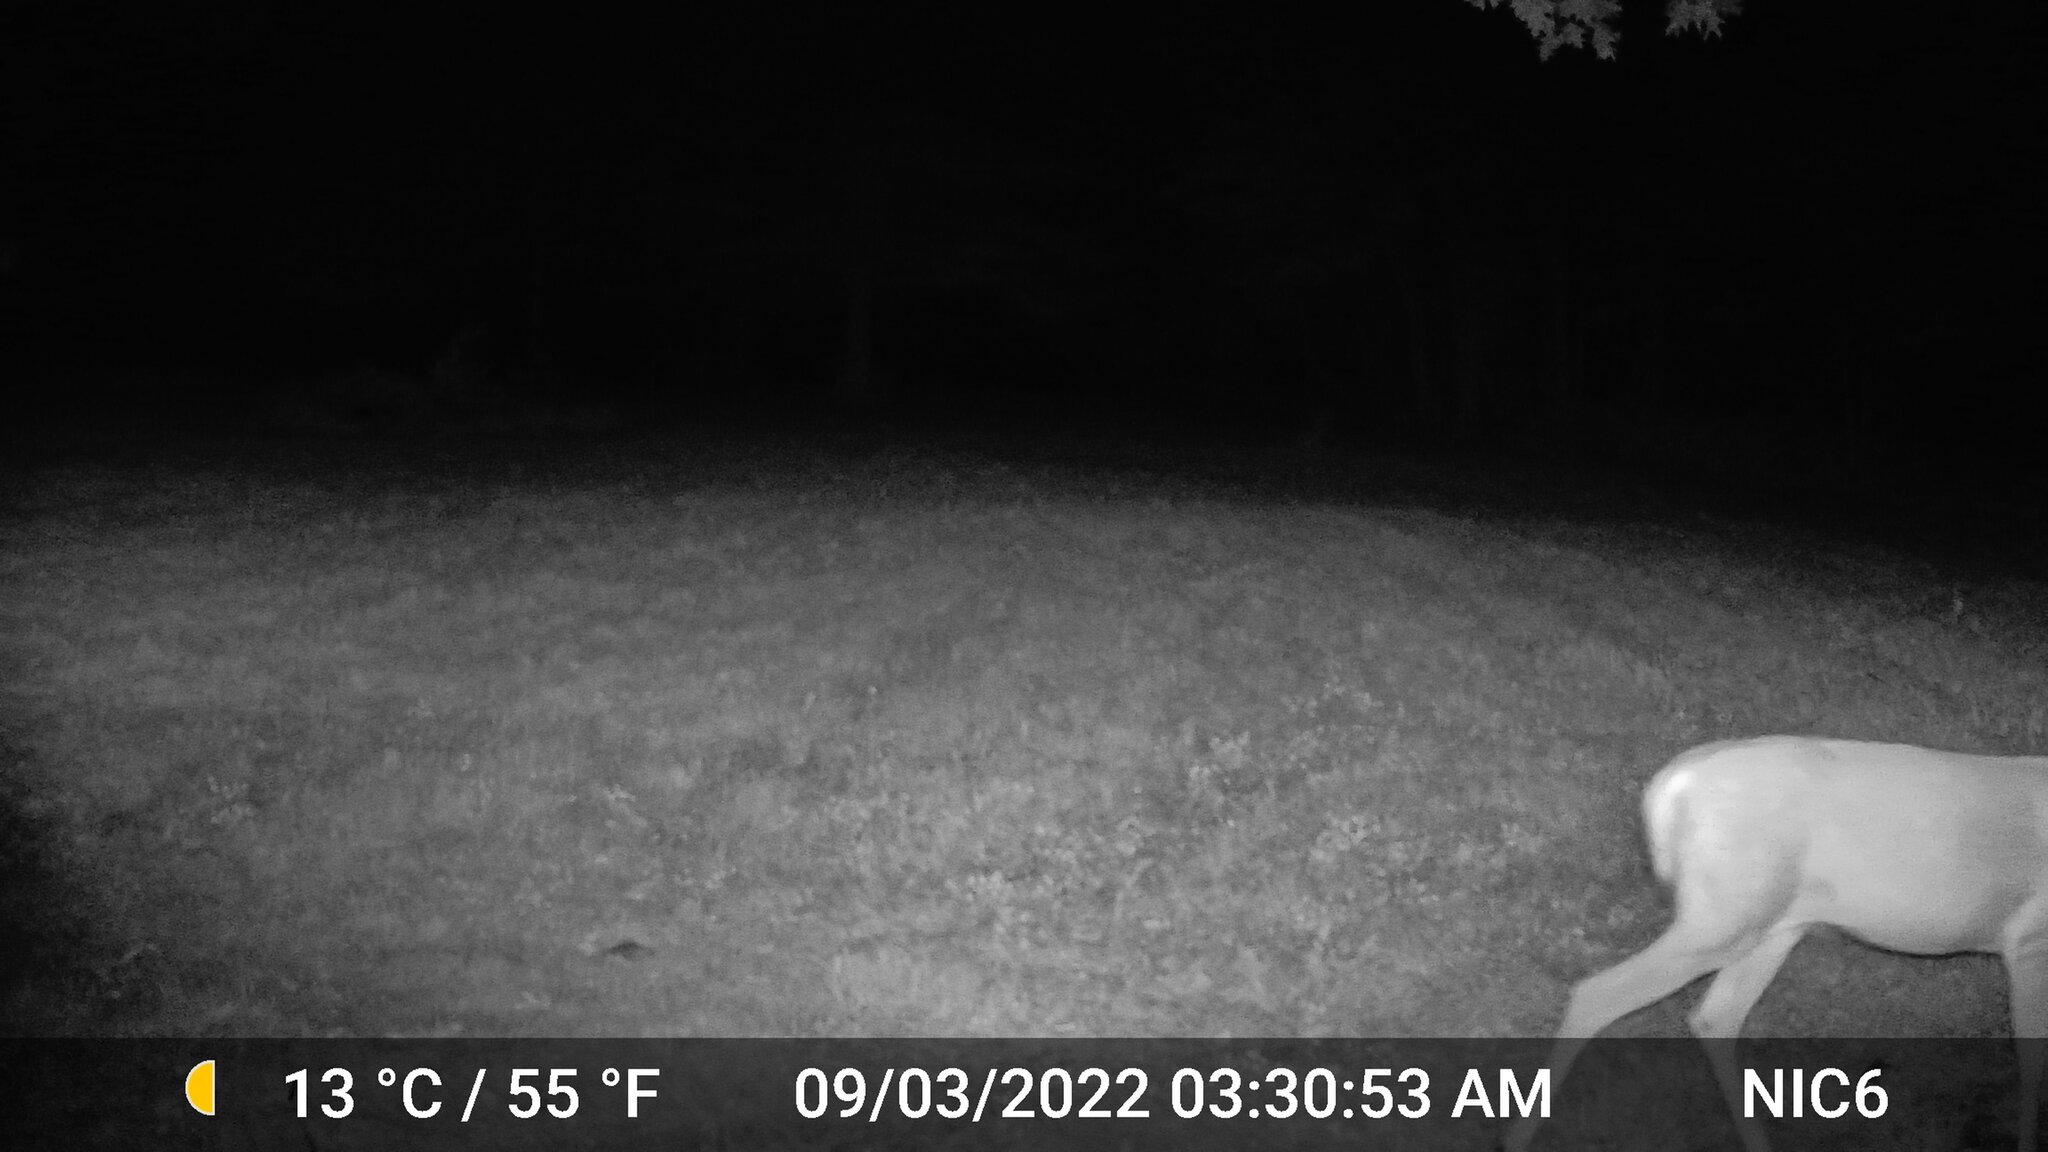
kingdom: Animalia
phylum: Chordata
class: Mammalia
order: Artiodactyla
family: Cervidae
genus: Odocoileus
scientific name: Odocoileus virginianus
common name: White-tailed deer
